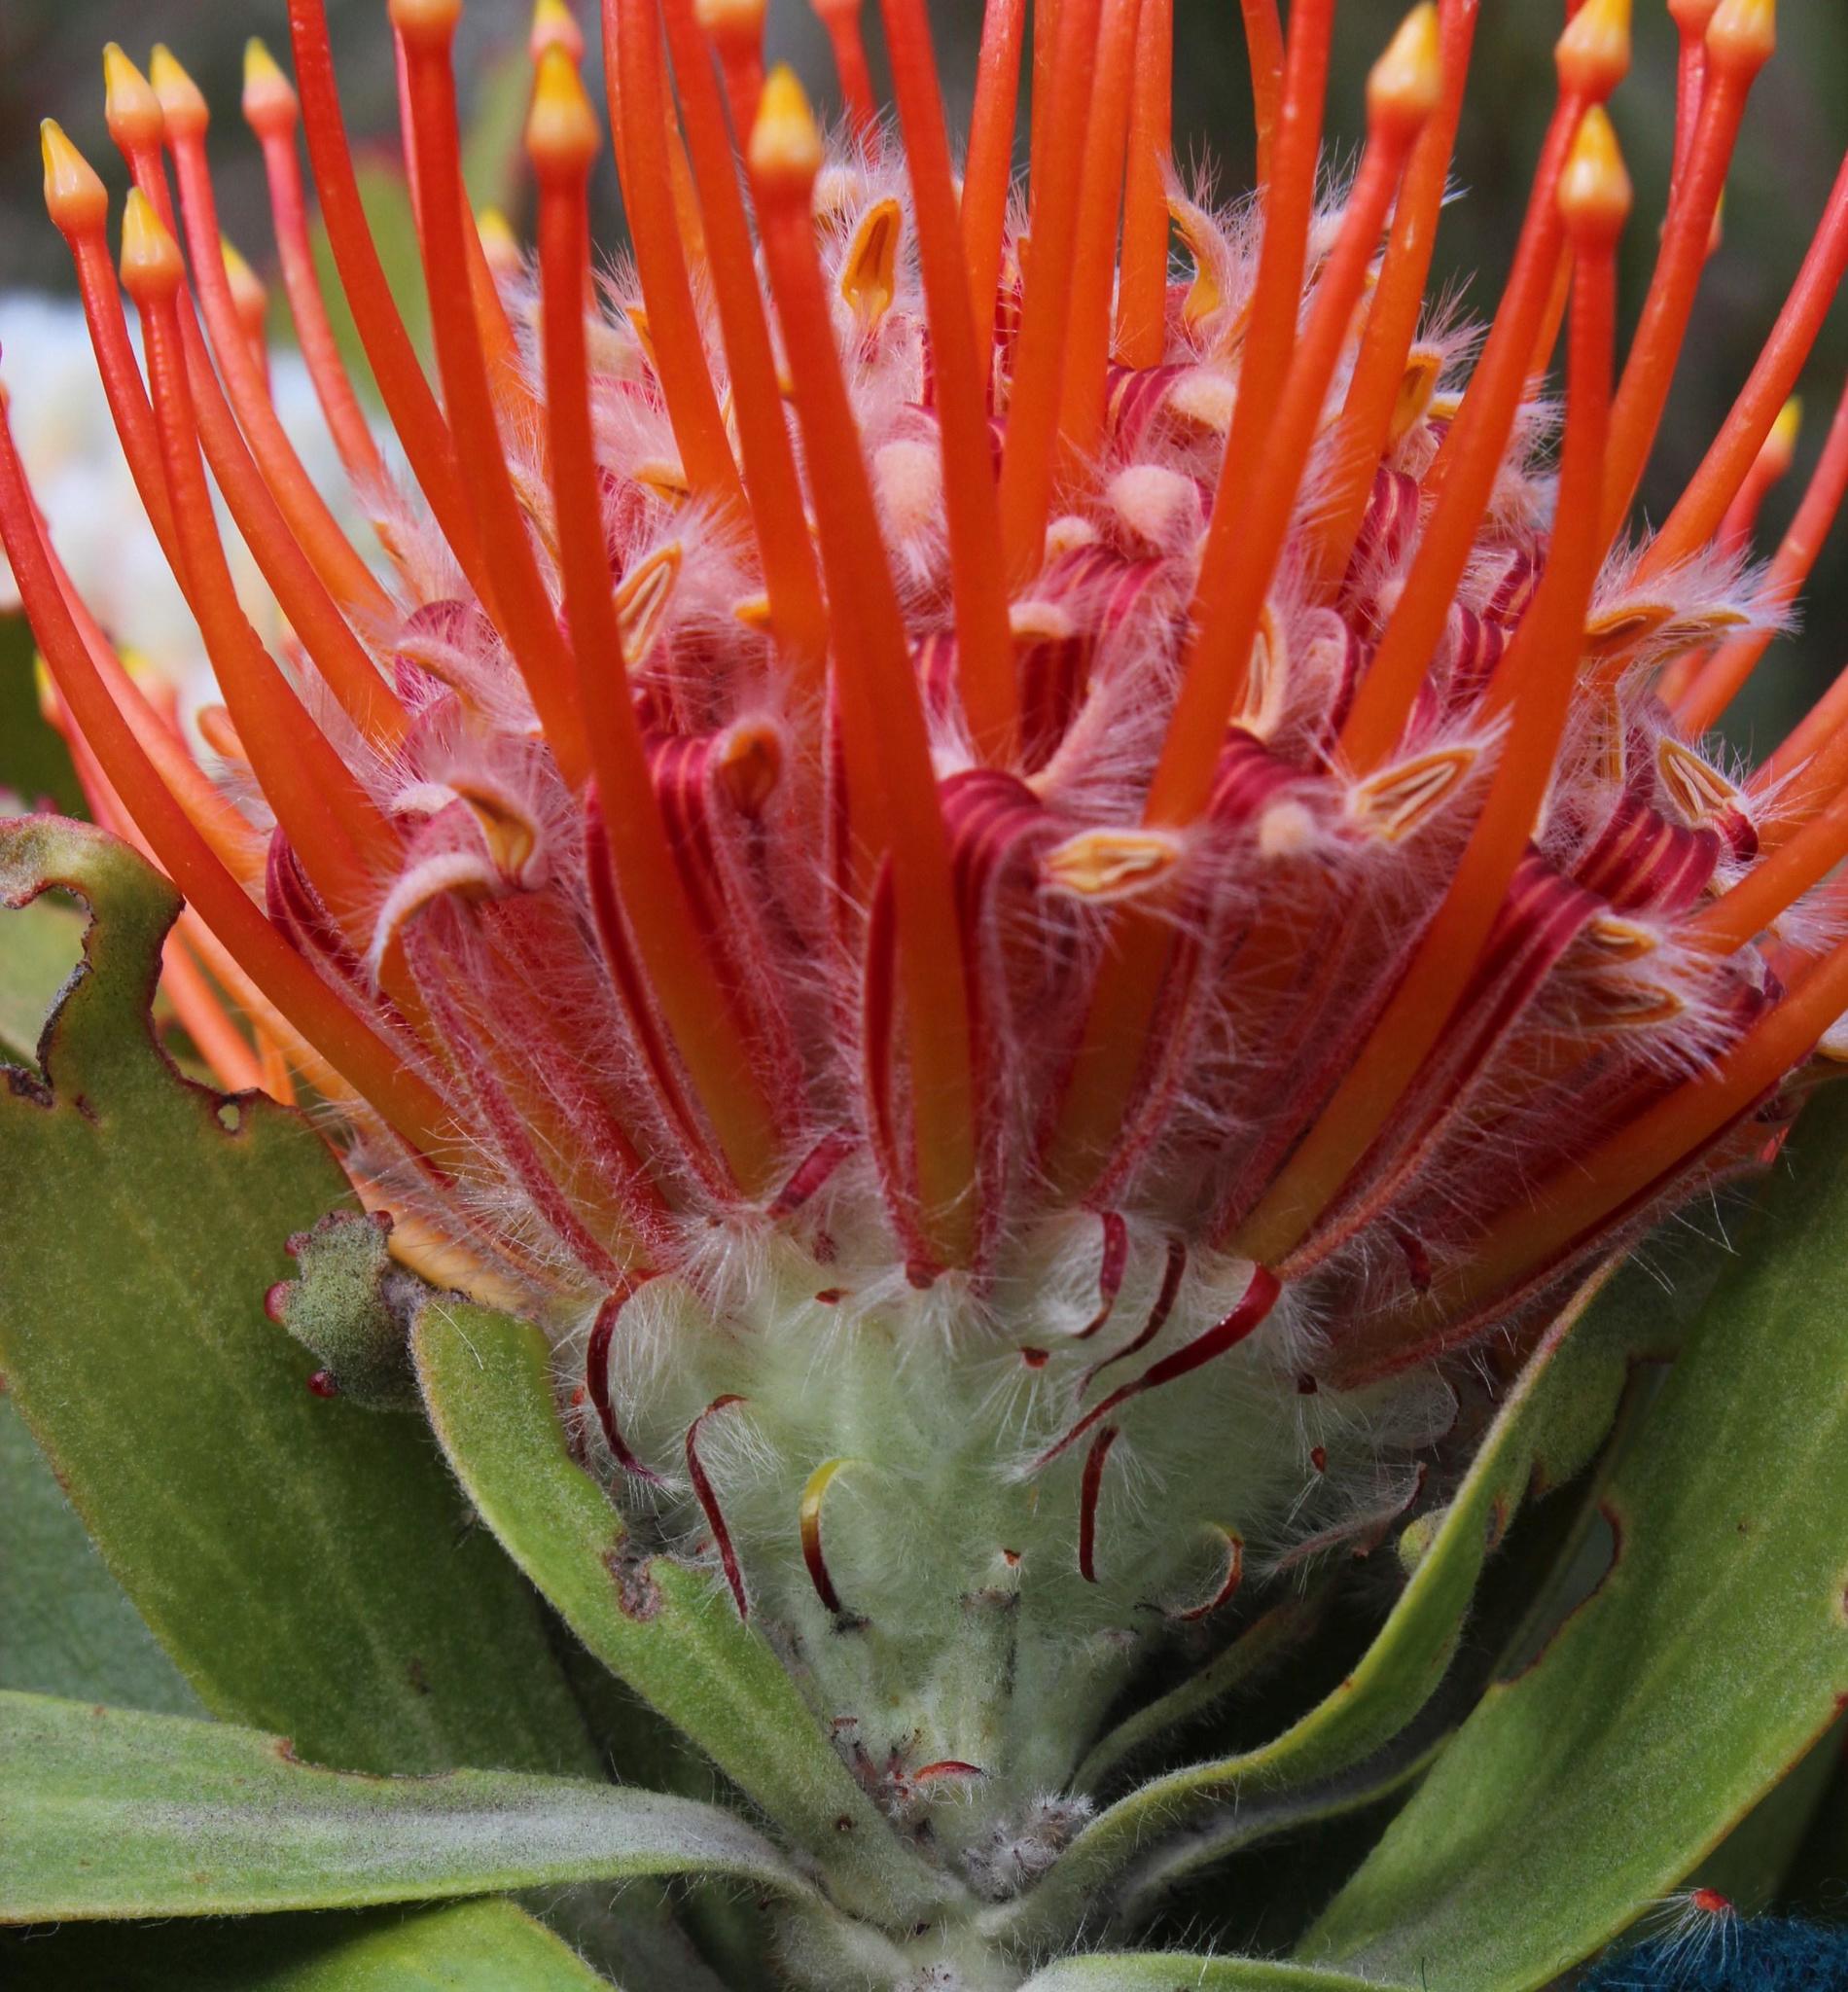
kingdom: Plantae
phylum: Tracheophyta
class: Magnoliopsida
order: Proteales
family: Proteaceae
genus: Leucospermum
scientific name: Leucospermum pluridens
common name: Robinson pincushion
